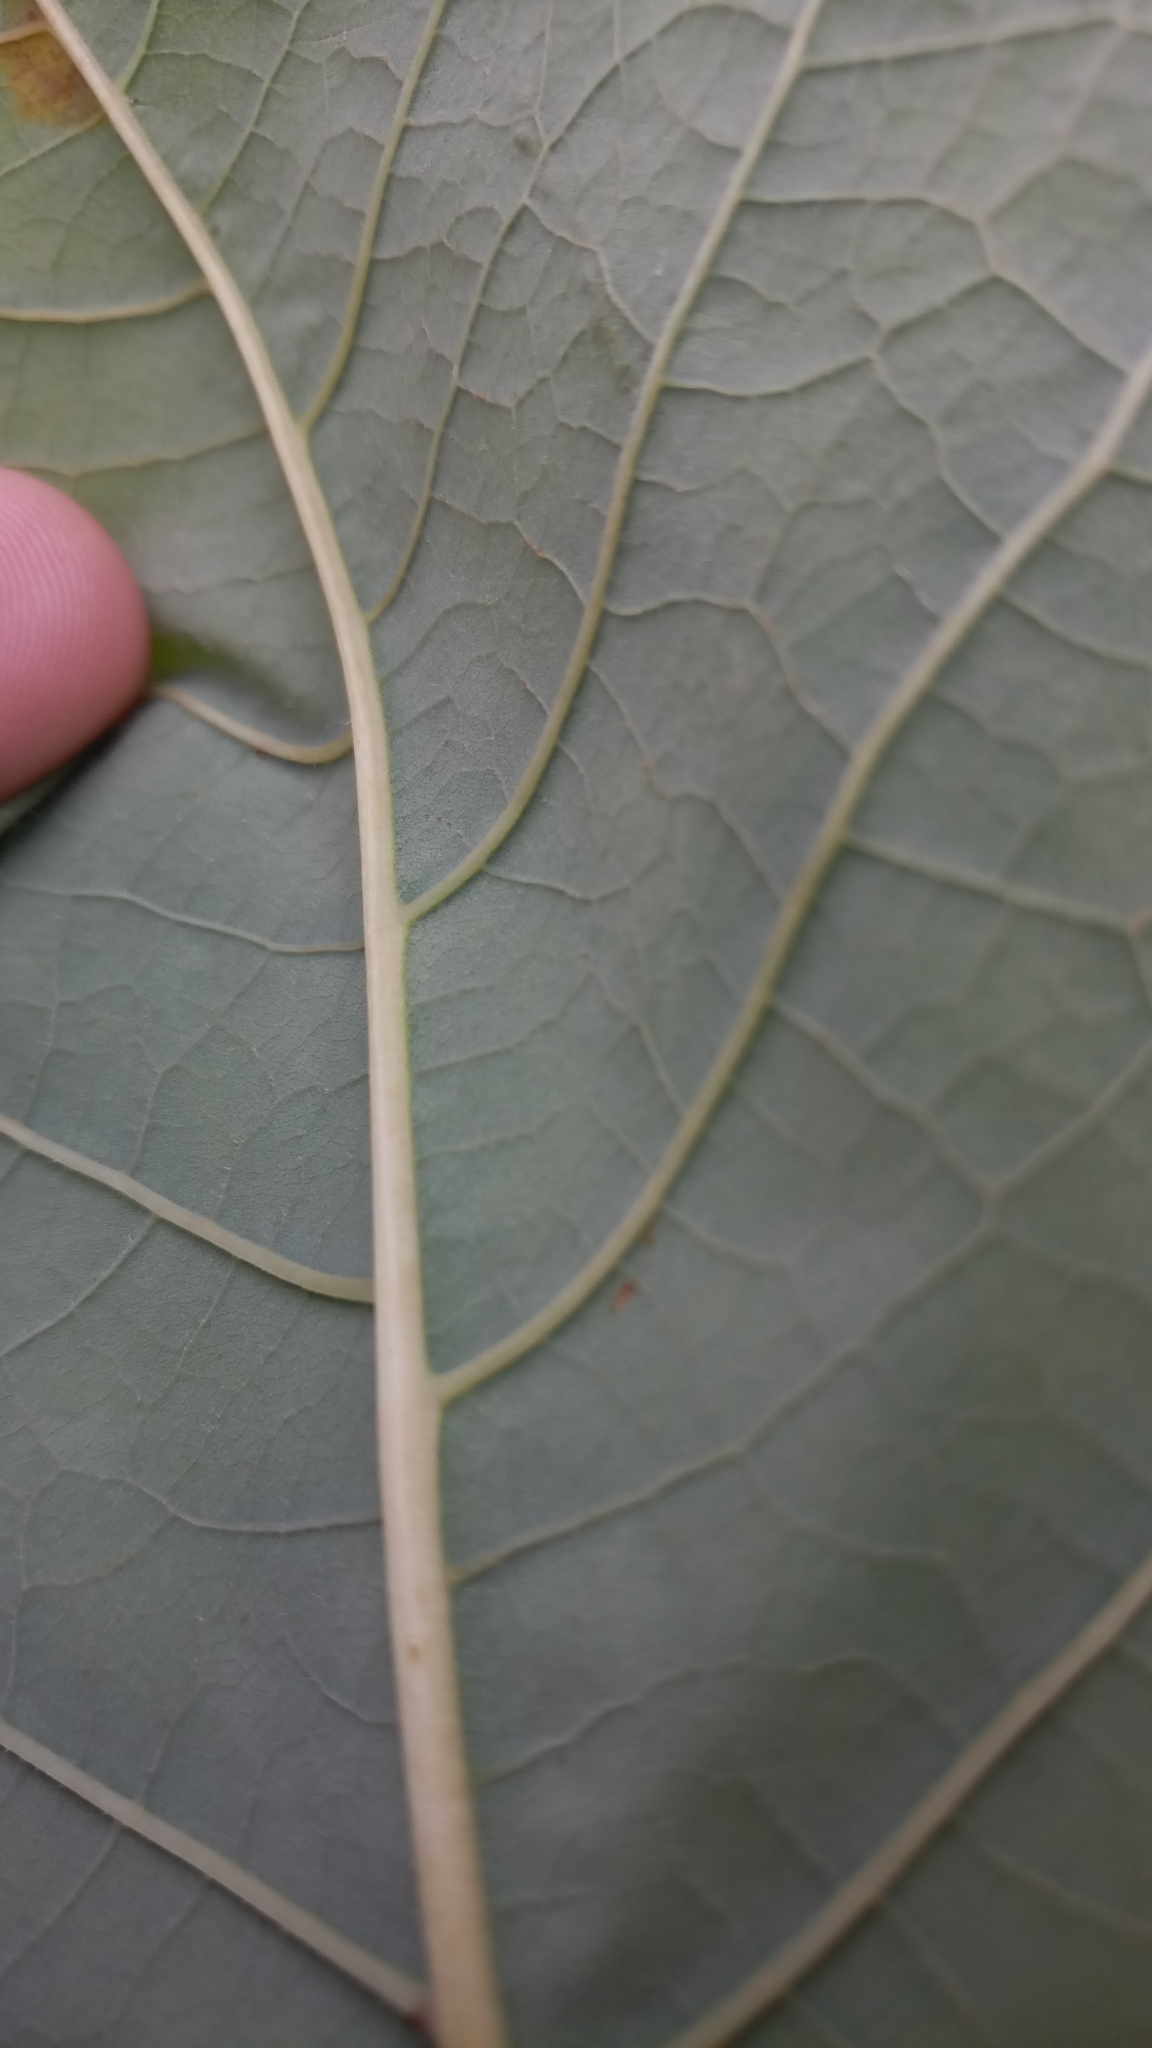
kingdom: Plantae
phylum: Tracheophyta
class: Magnoliopsida
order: Caryophyllales
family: Polygonaceae
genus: Reynoutria
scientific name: Reynoutria sachalinensis
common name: Giant knotweed
